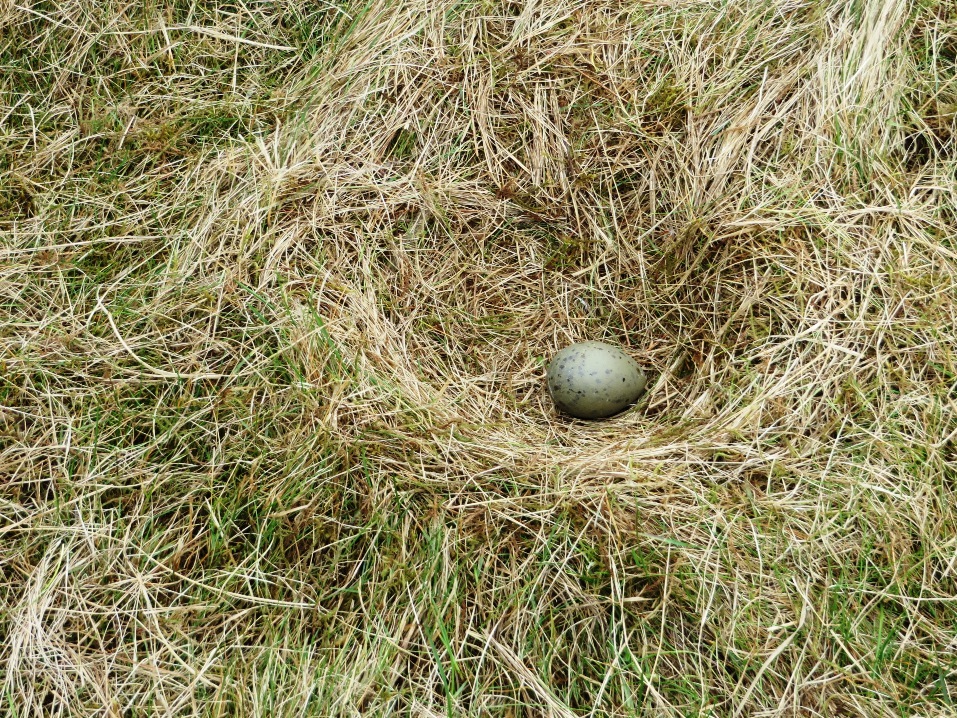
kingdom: Animalia
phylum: Chordata
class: Aves
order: Charadriiformes
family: Stercorariidae
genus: Stercorarius
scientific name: Stercorarius skua
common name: Great skua
